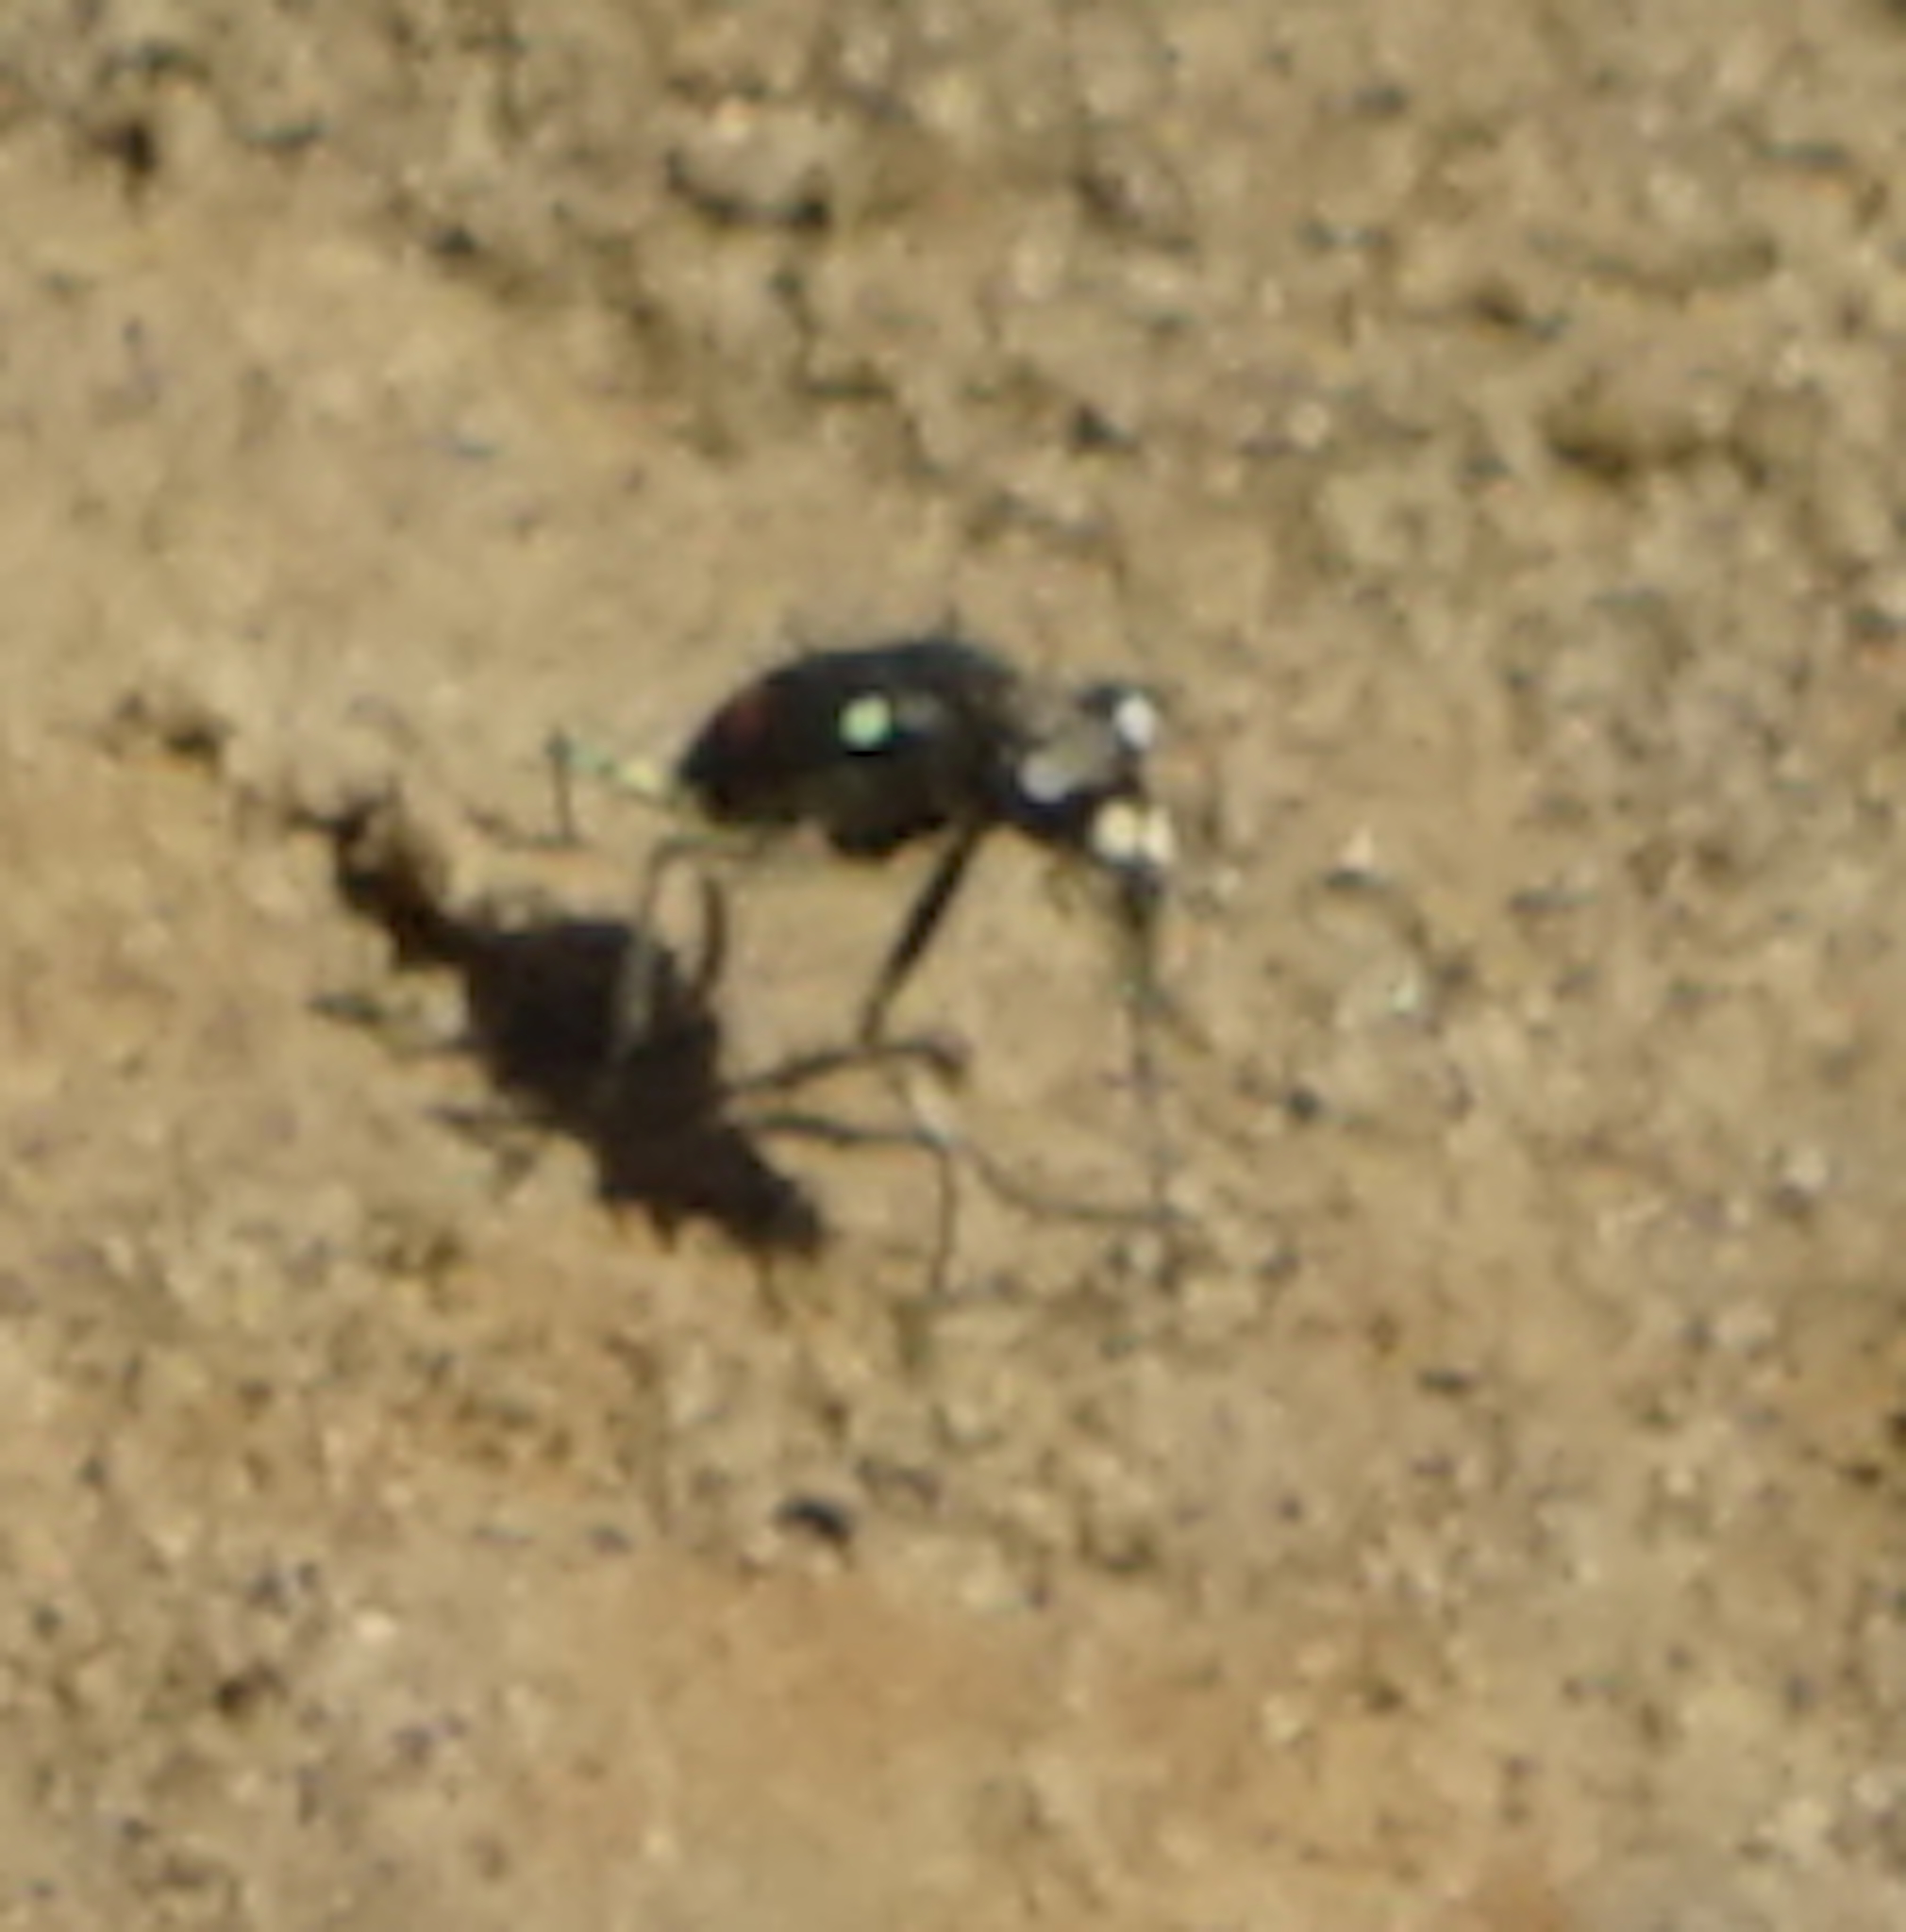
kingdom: Animalia
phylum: Arthropoda
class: Insecta
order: Coleoptera
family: Carabidae
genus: Cicindela
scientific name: Cicindela crespignyi
